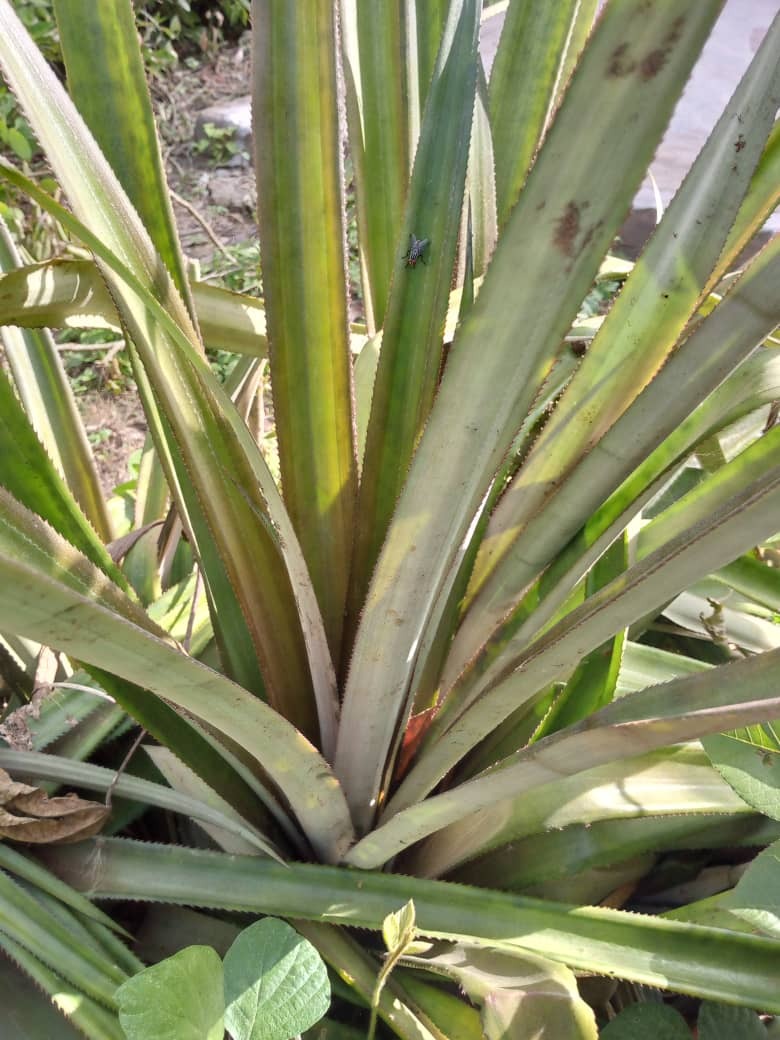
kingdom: Plantae
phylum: Tracheophyta
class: Liliopsida
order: Poales
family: Bromeliaceae
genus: Ananas
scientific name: Ananas comosus
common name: Pineapple
